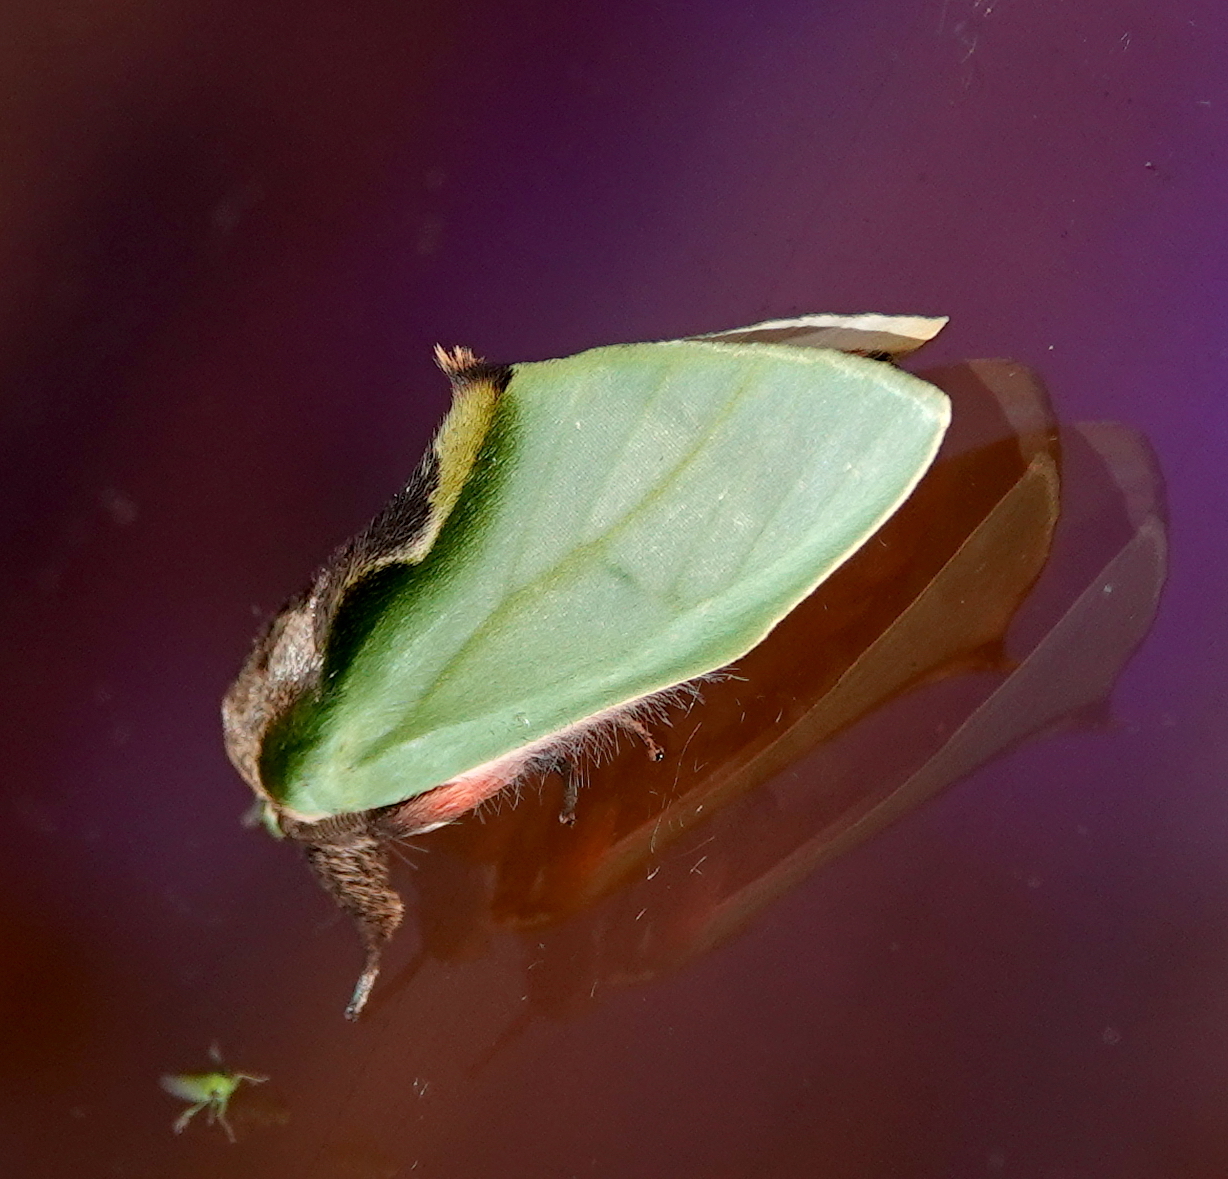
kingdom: Animalia
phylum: Arthropoda
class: Insecta
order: Lepidoptera
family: Notodontidae
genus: Rosema
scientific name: Rosema sciritis
